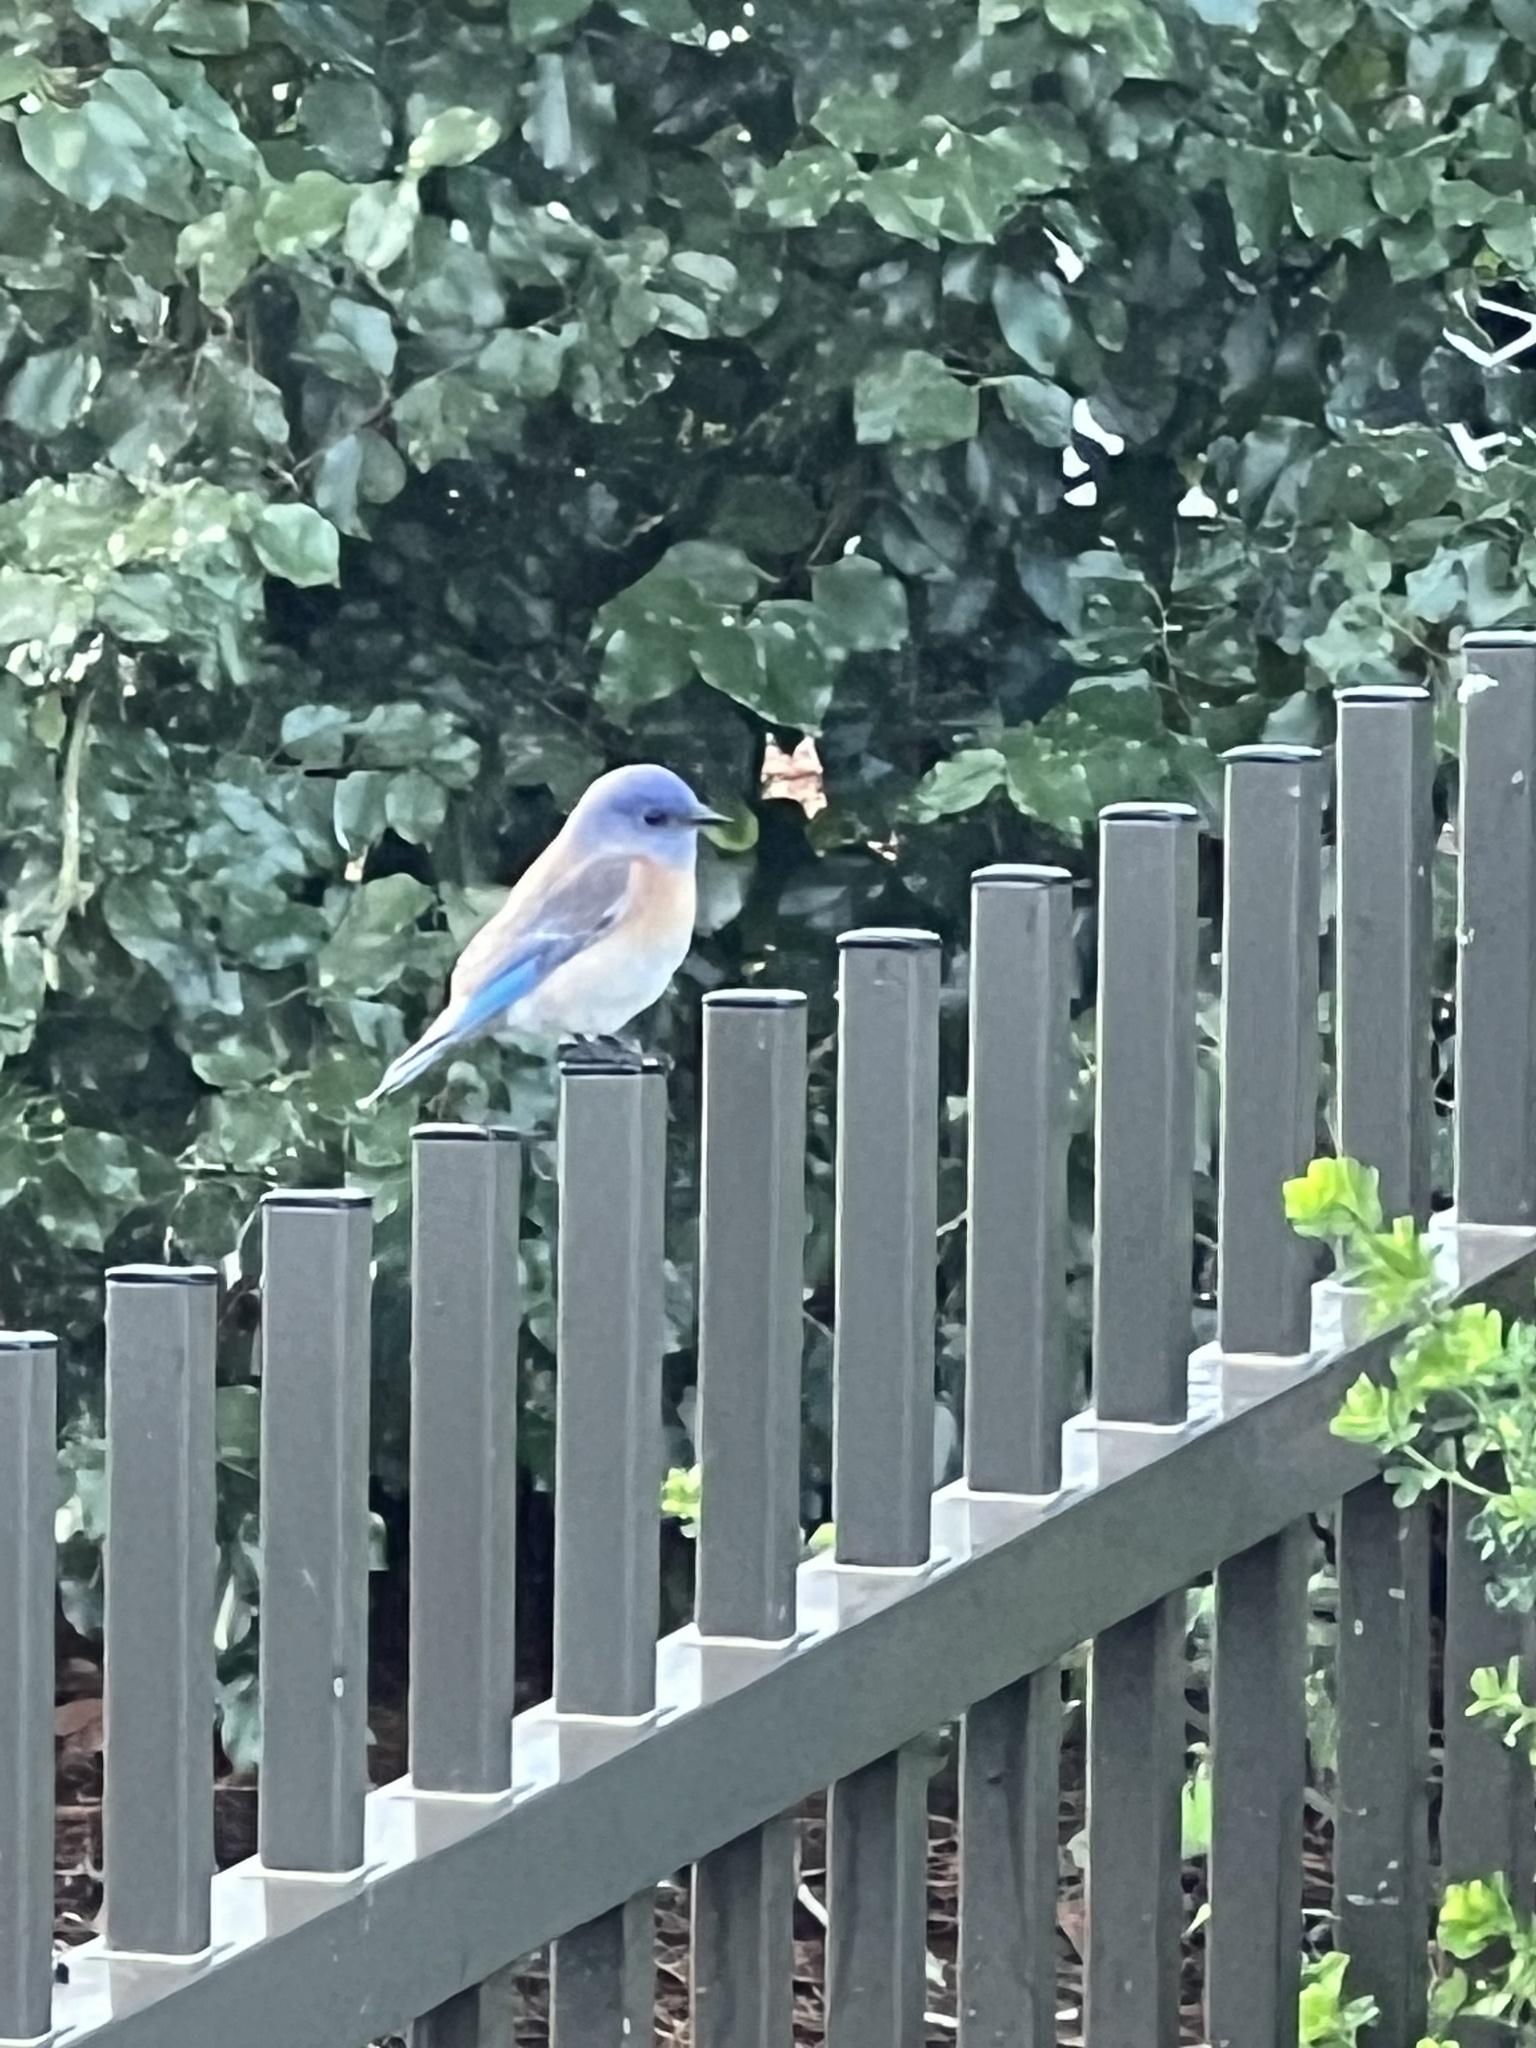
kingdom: Animalia
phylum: Chordata
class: Aves
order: Passeriformes
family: Turdidae
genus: Sialia
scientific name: Sialia mexicana
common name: Western bluebird
